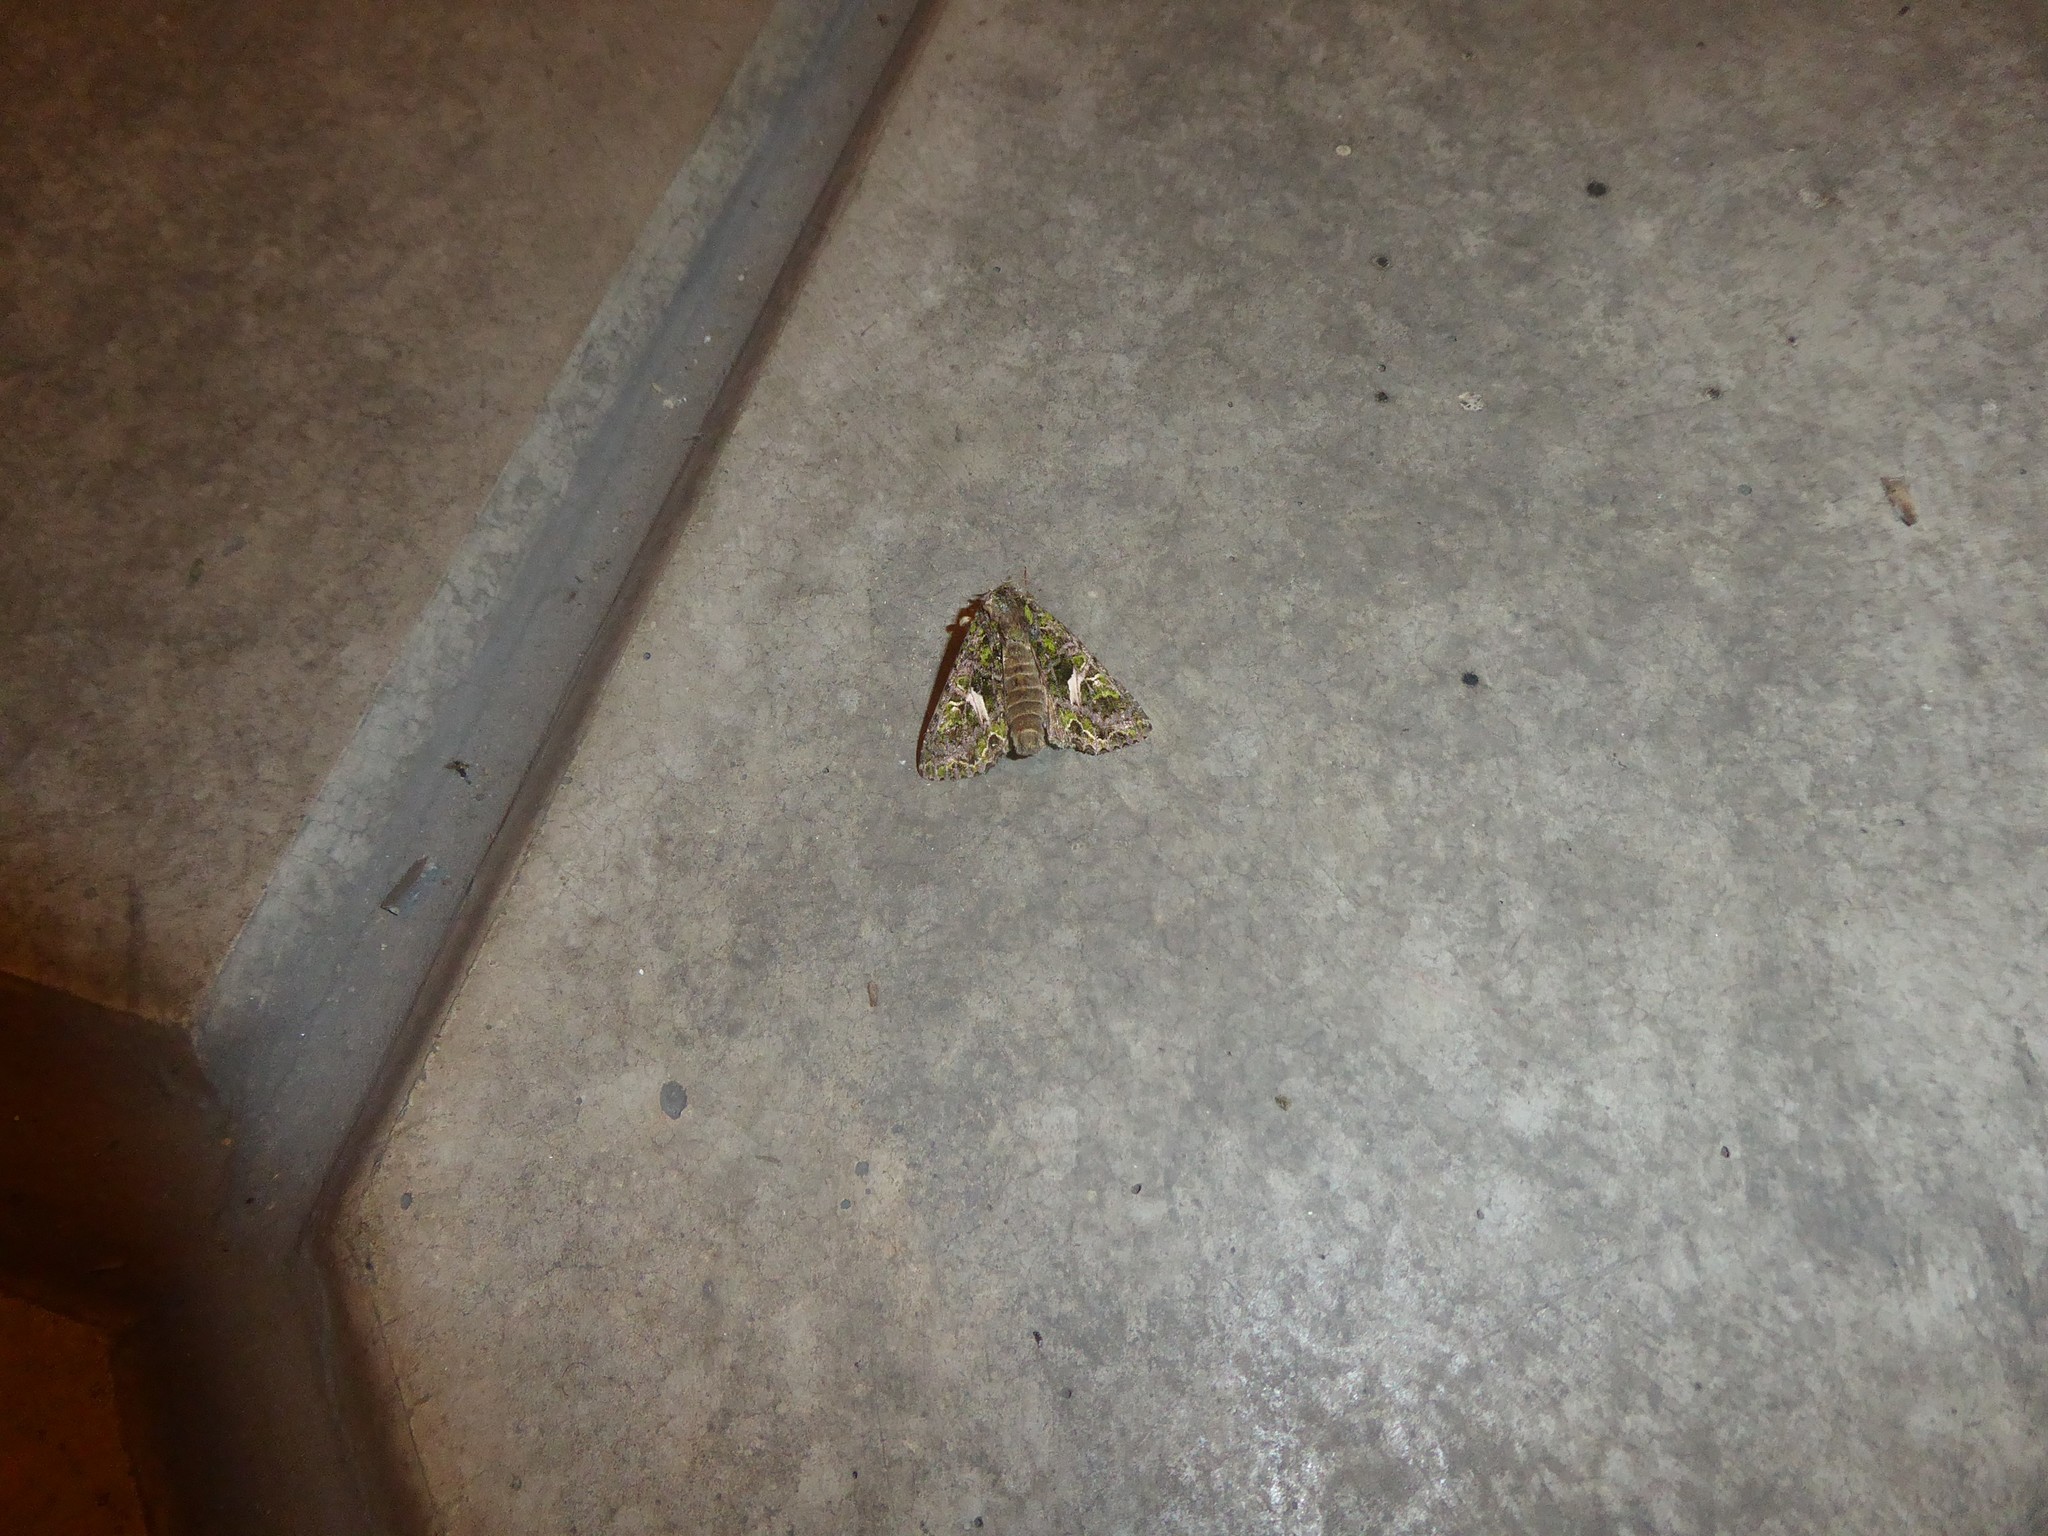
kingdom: Animalia
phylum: Arthropoda
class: Insecta
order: Lepidoptera
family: Noctuidae
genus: Trachea
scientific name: Trachea atriplicis
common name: Orache moth
